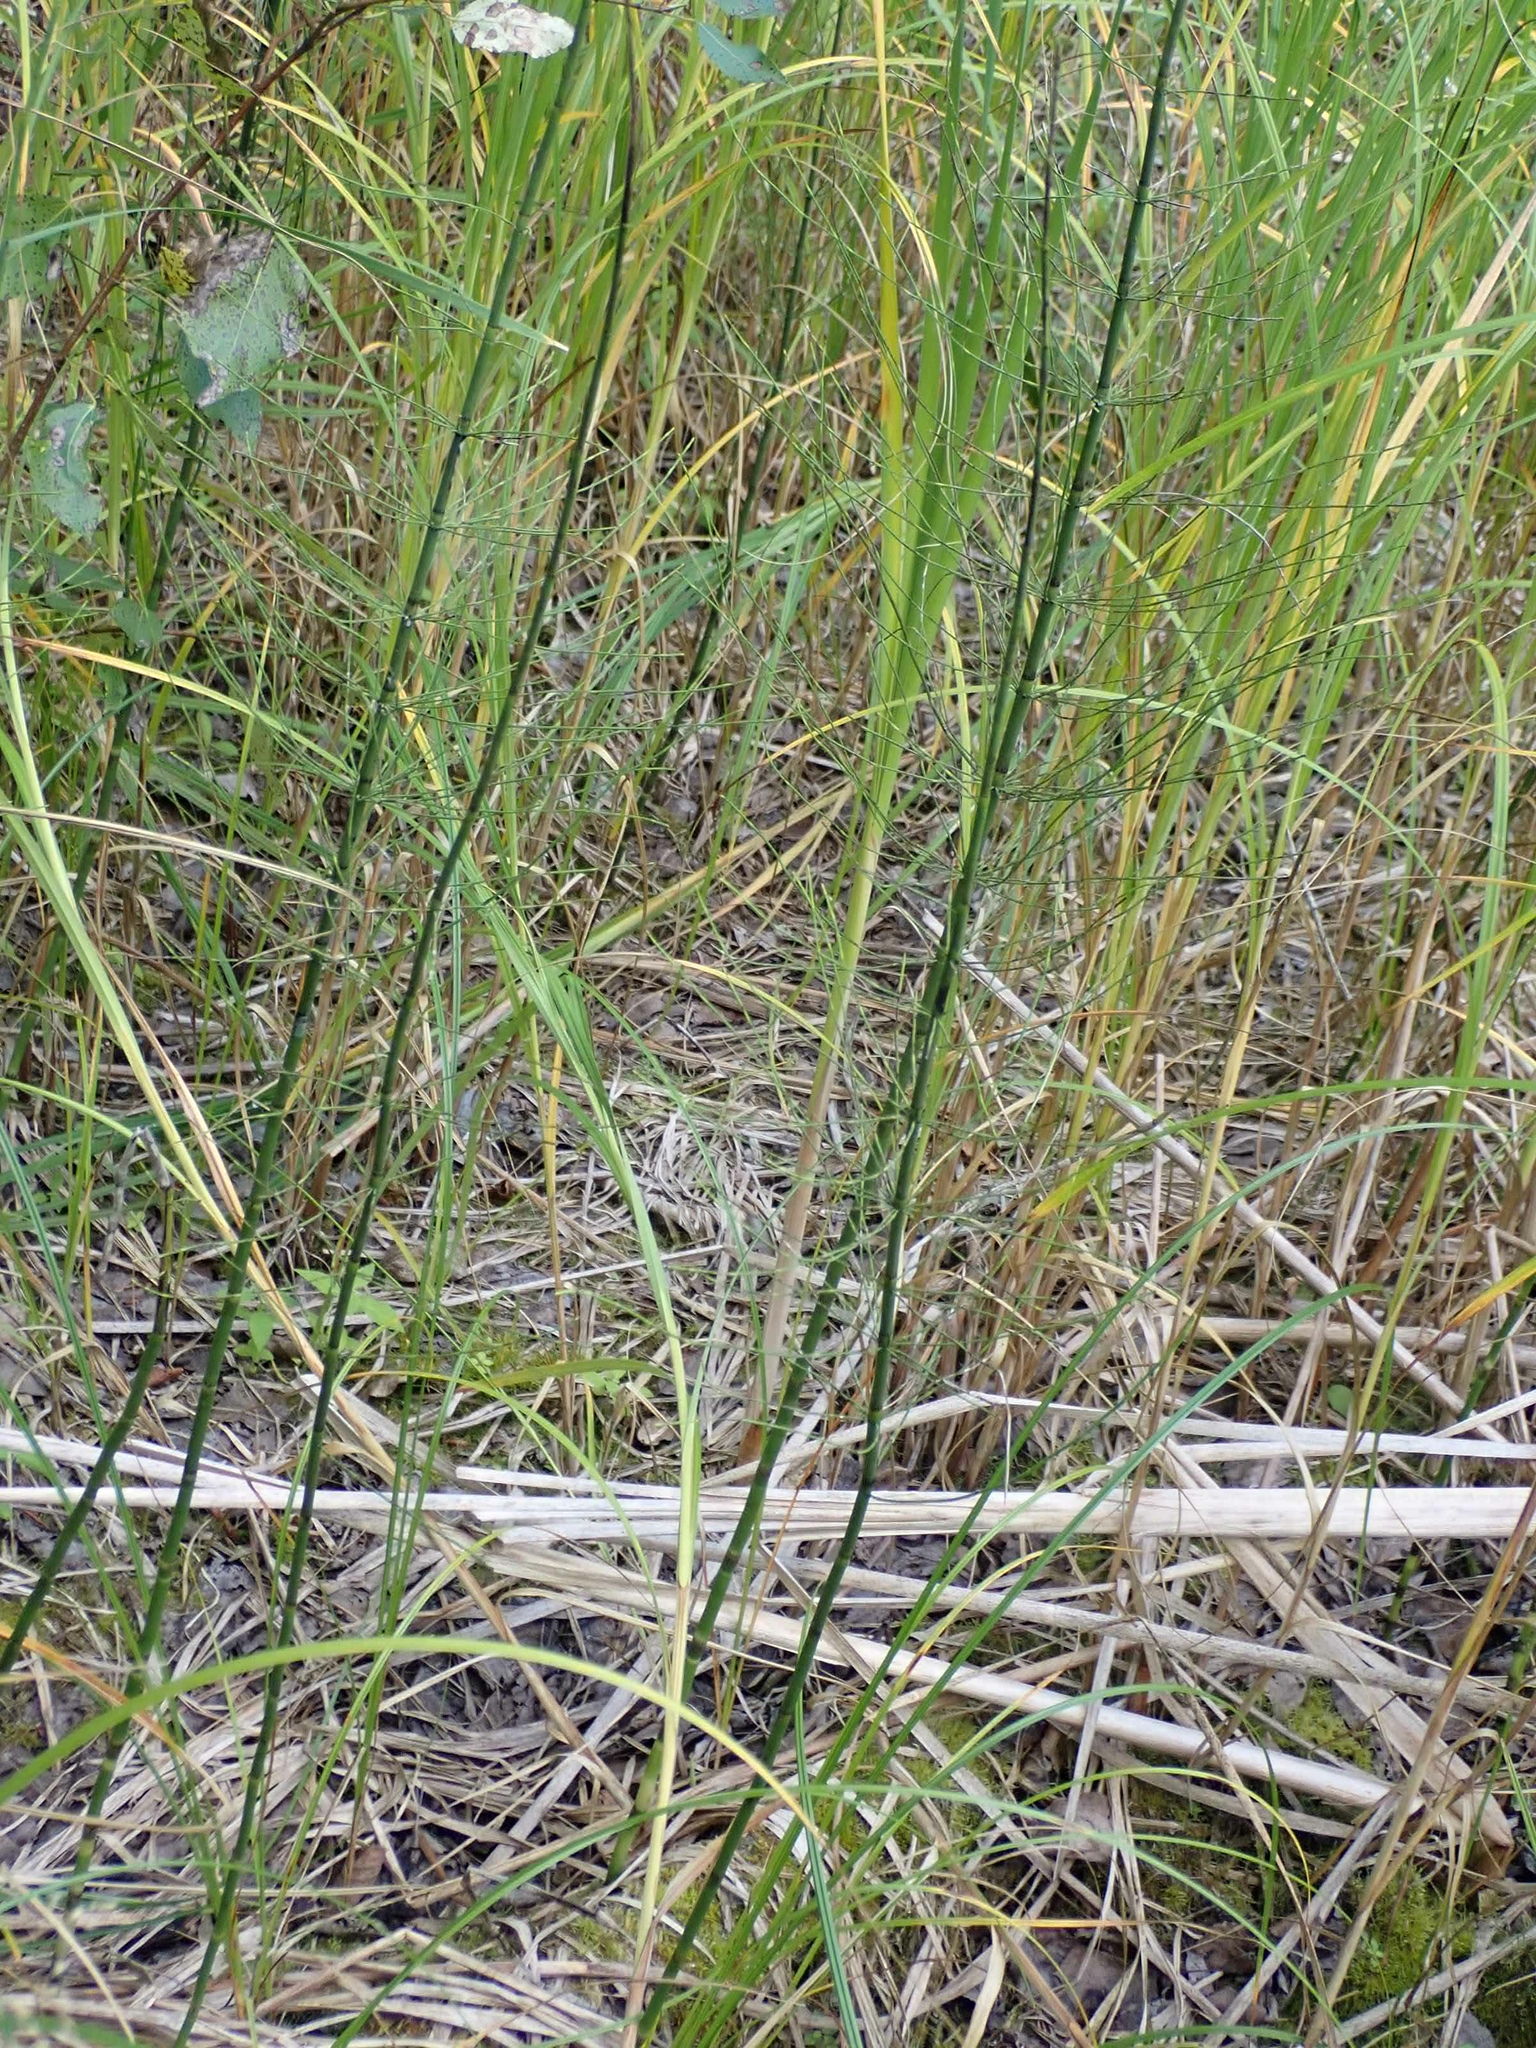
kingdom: Plantae
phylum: Tracheophyta
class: Polypodiopsida
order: Equisetales
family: Equisetaceae
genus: Equisetum
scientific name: Equisetum fluviatile
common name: Water horsetail
